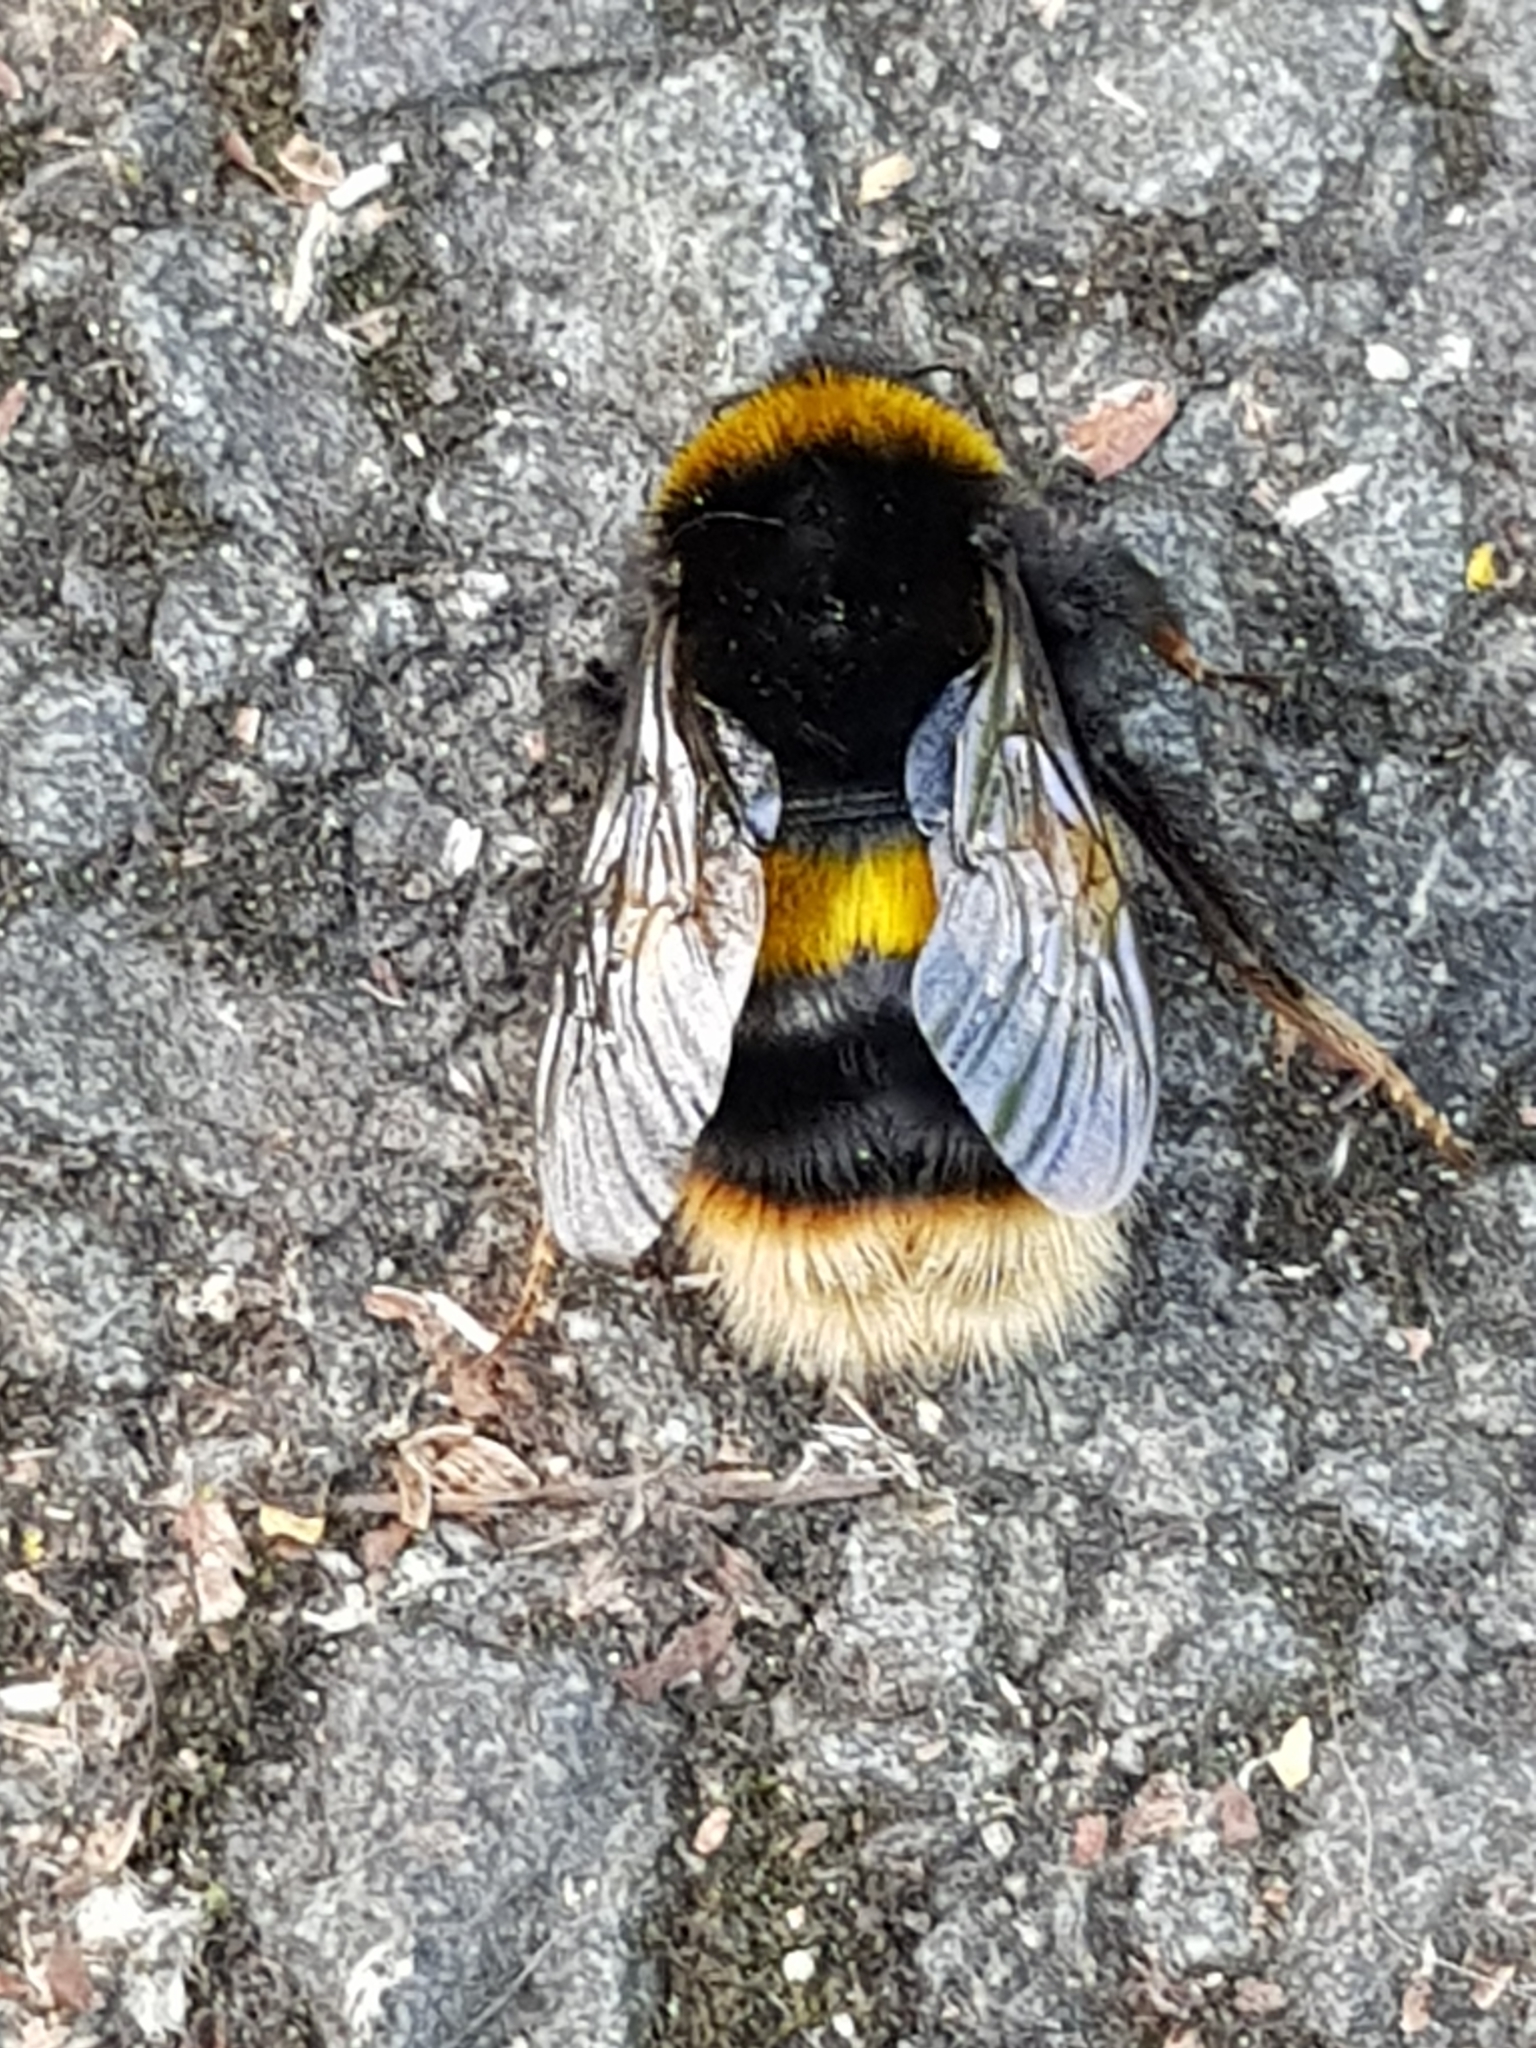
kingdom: Animalia
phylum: Arthropoda
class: Insecta
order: Hymenoptera
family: Apidae
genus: Bombus
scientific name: Bombus terrestris
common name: Buff-tailed bumblebee
